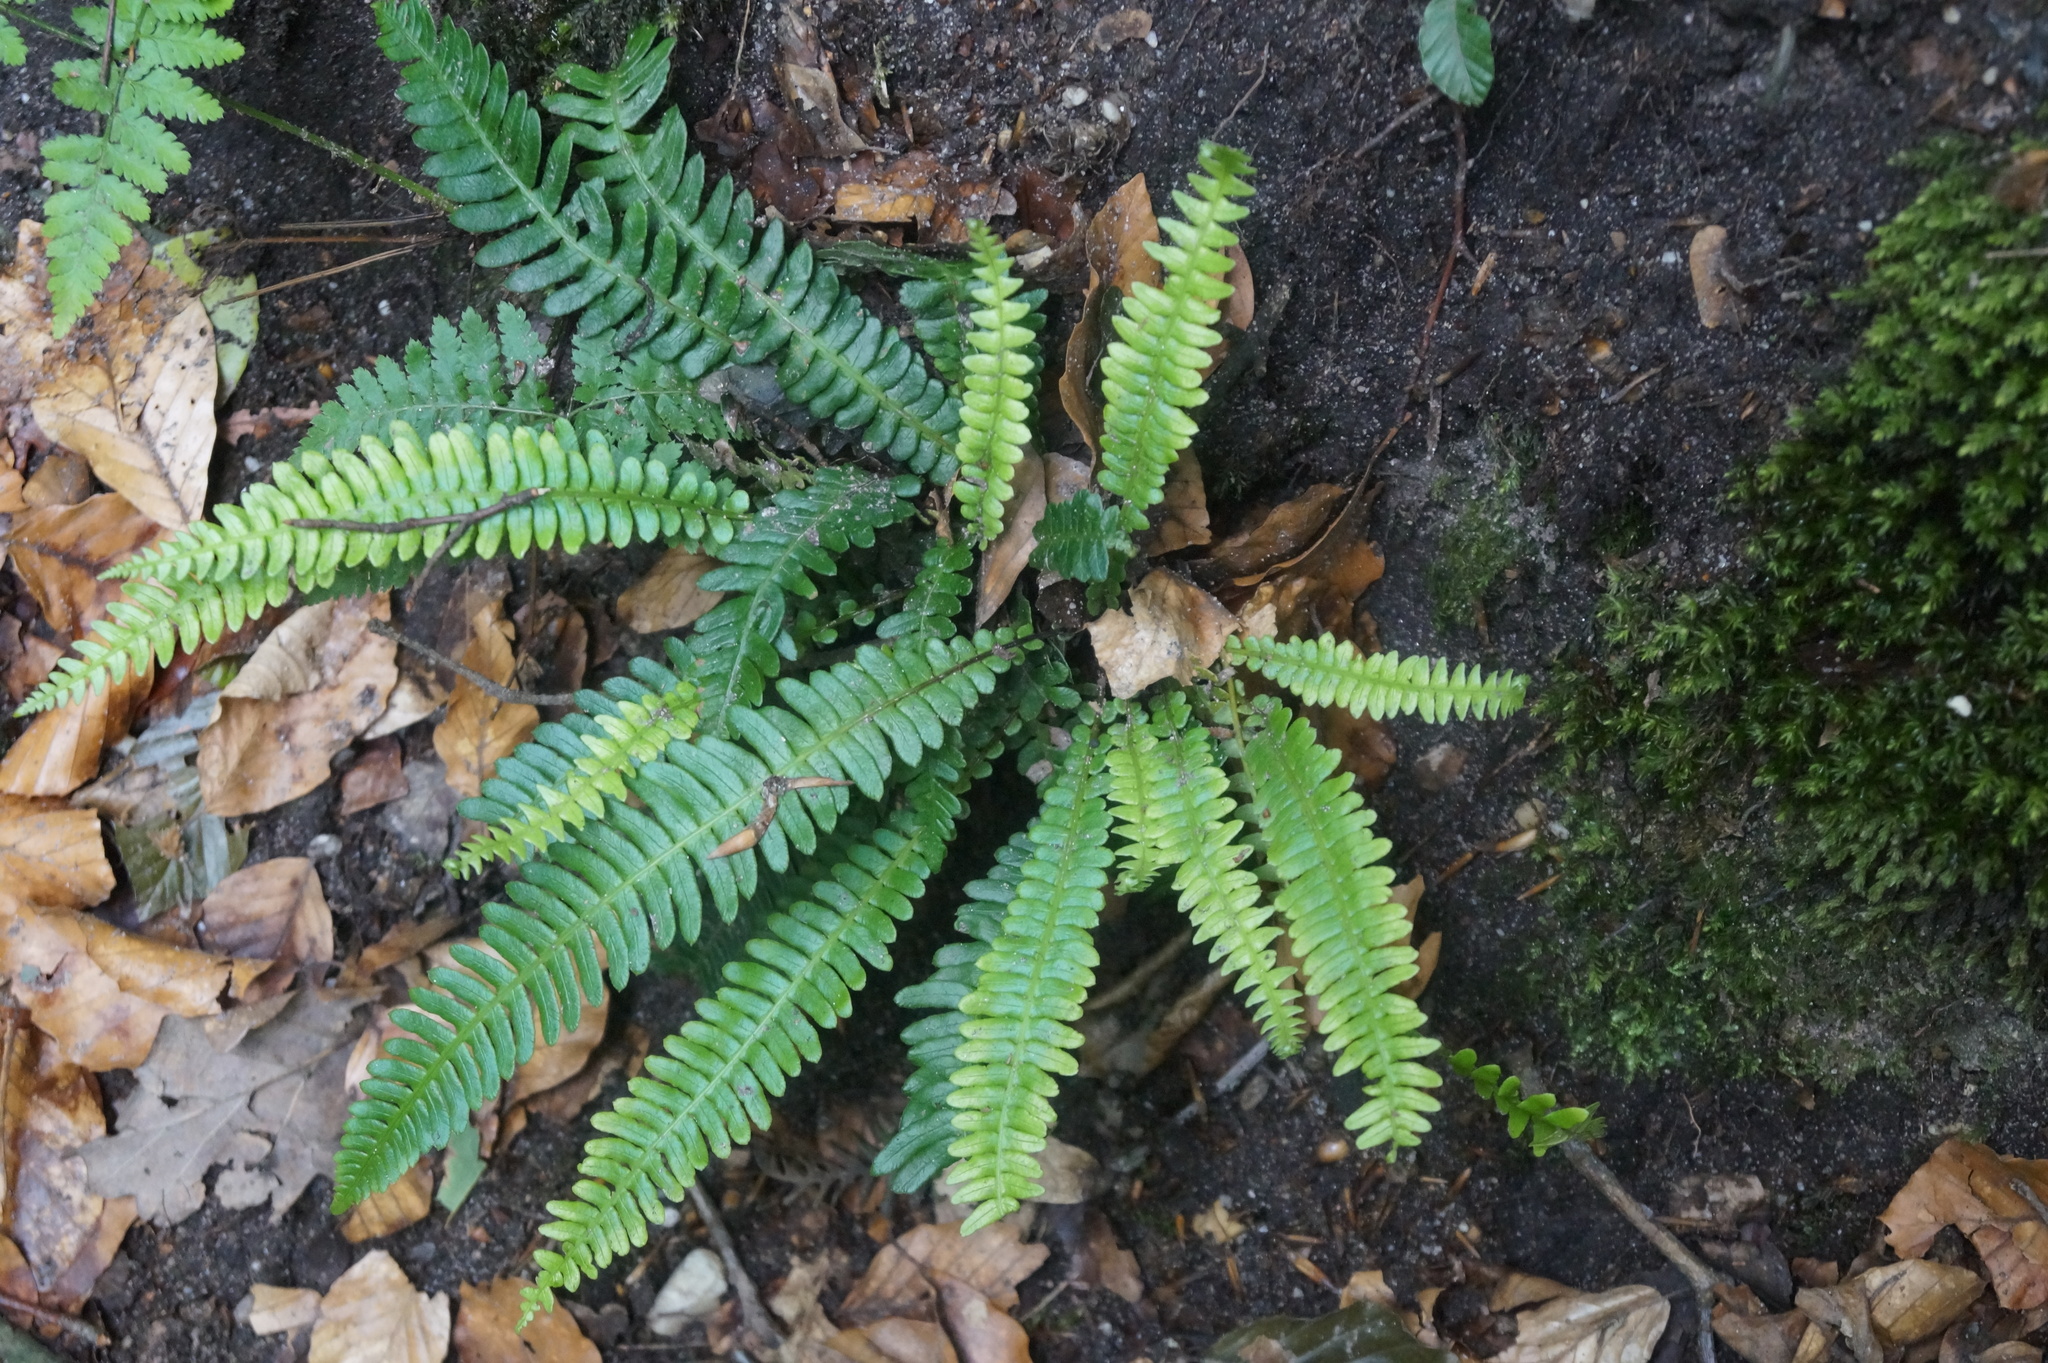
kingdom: Plantae
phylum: Tracheophyta
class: Polypodiopsida
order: Polypodiales
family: Blechnaceae
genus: Struthiopteris
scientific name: Struthiopteris spicant
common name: Deer fern
